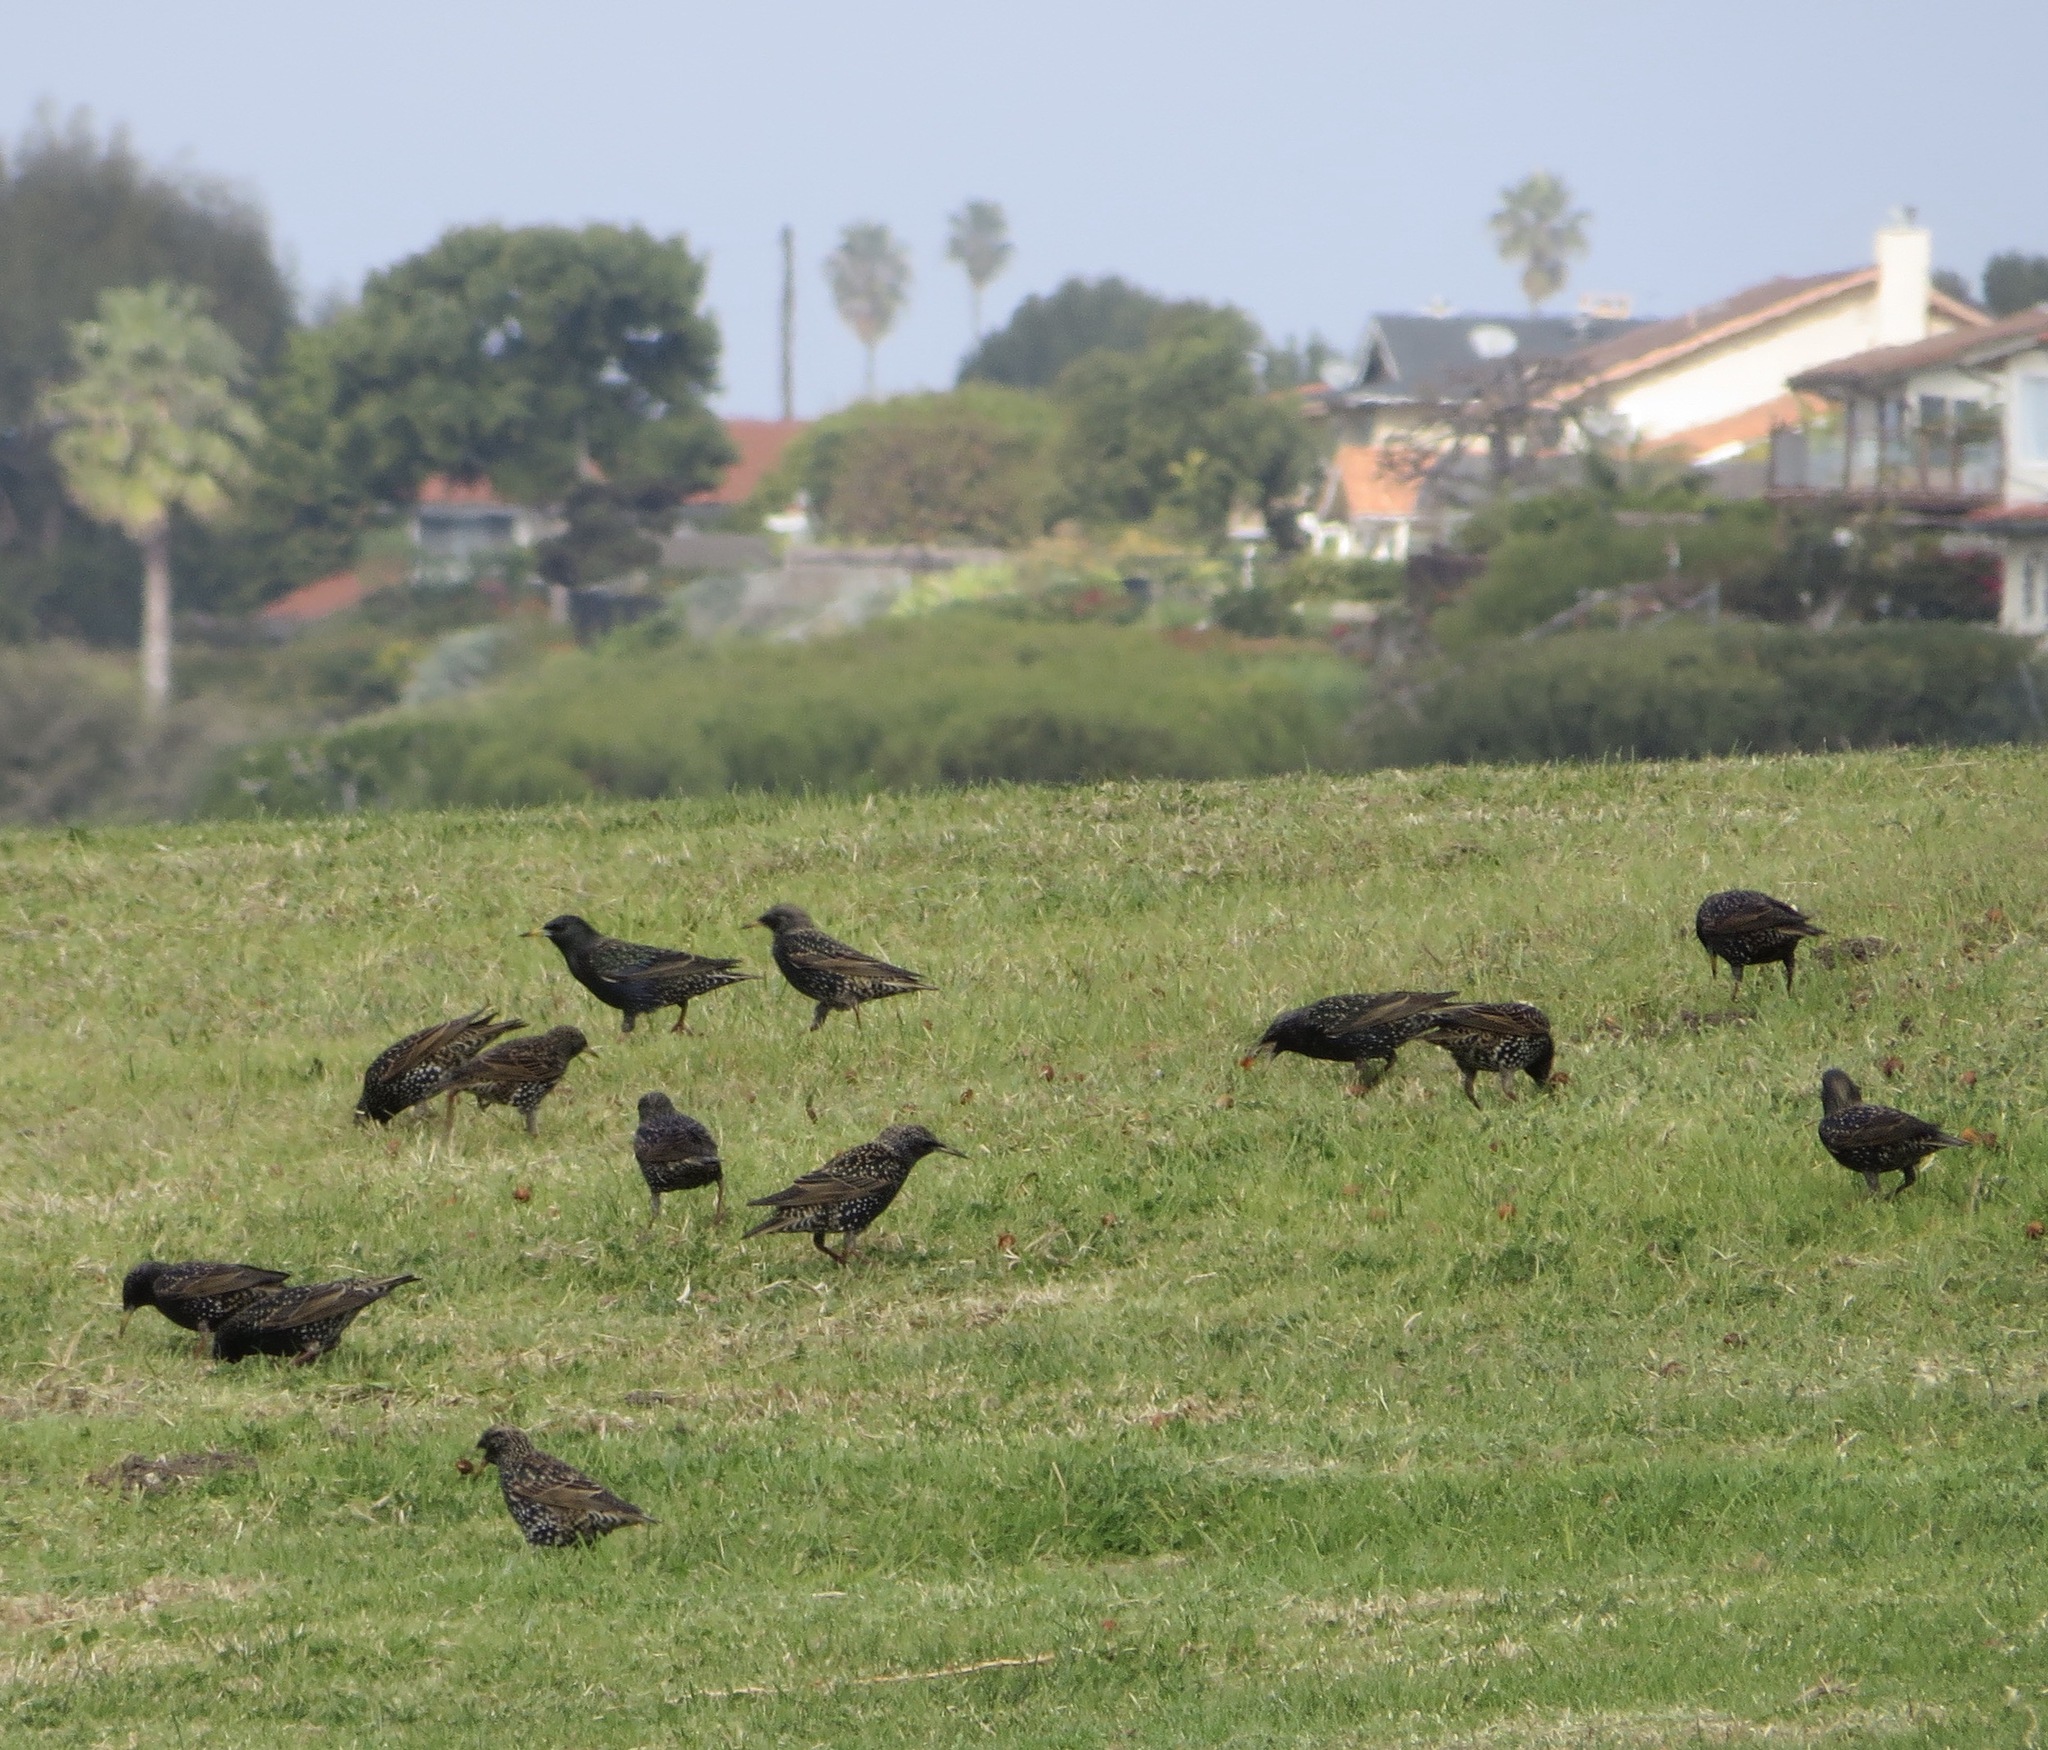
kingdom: Animalia
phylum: Chordata
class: Aves
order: Passeriformes
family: Sturnidae
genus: Sturnus
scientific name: Sturnus vulgaris
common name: Common starling
